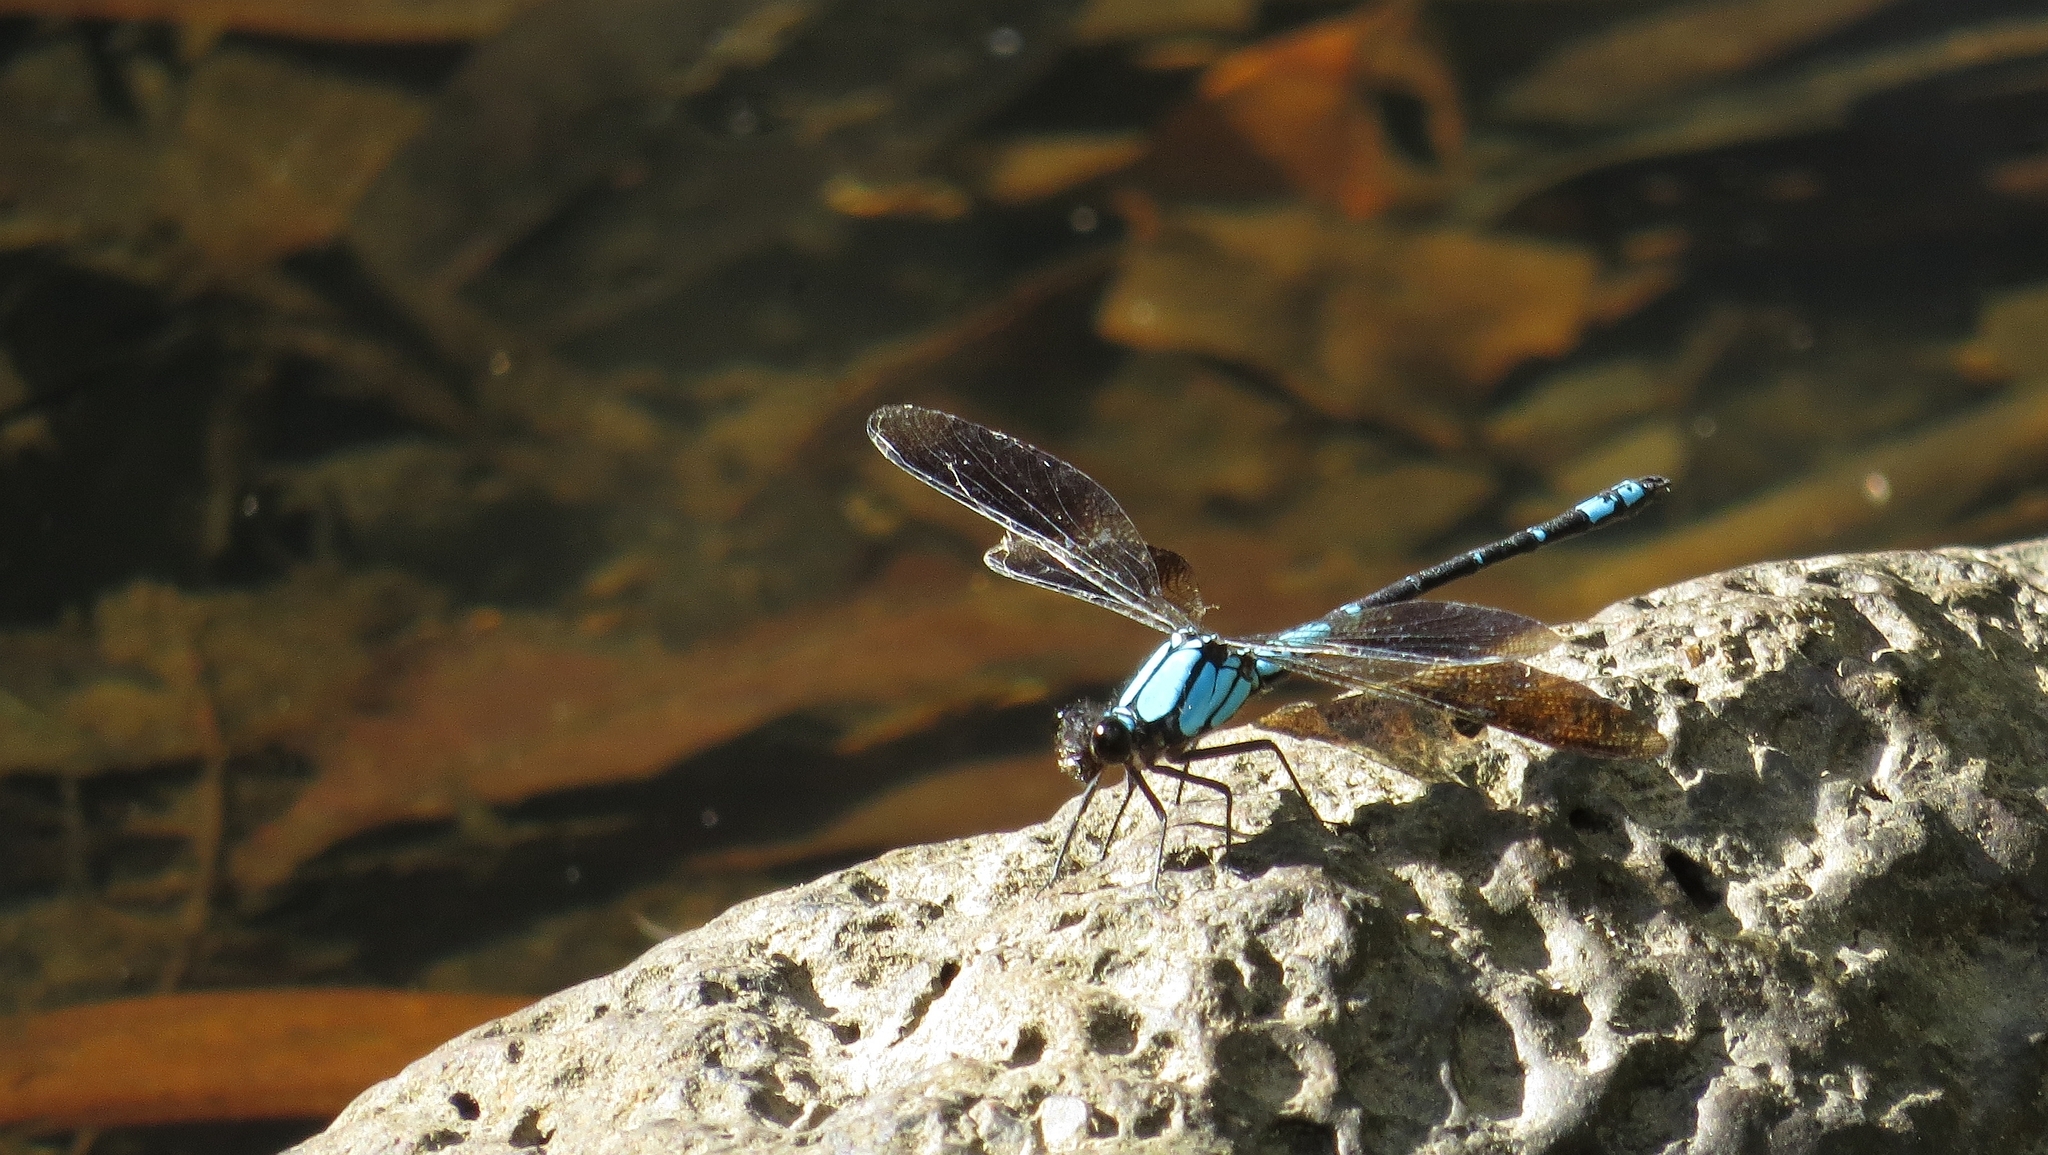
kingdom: Animalia
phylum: Arthropoda
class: Insecta
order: Odonata
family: Lestoideidae
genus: Diphlebia
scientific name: Diphlebia coerulescens
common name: Sapphire rockmaster
